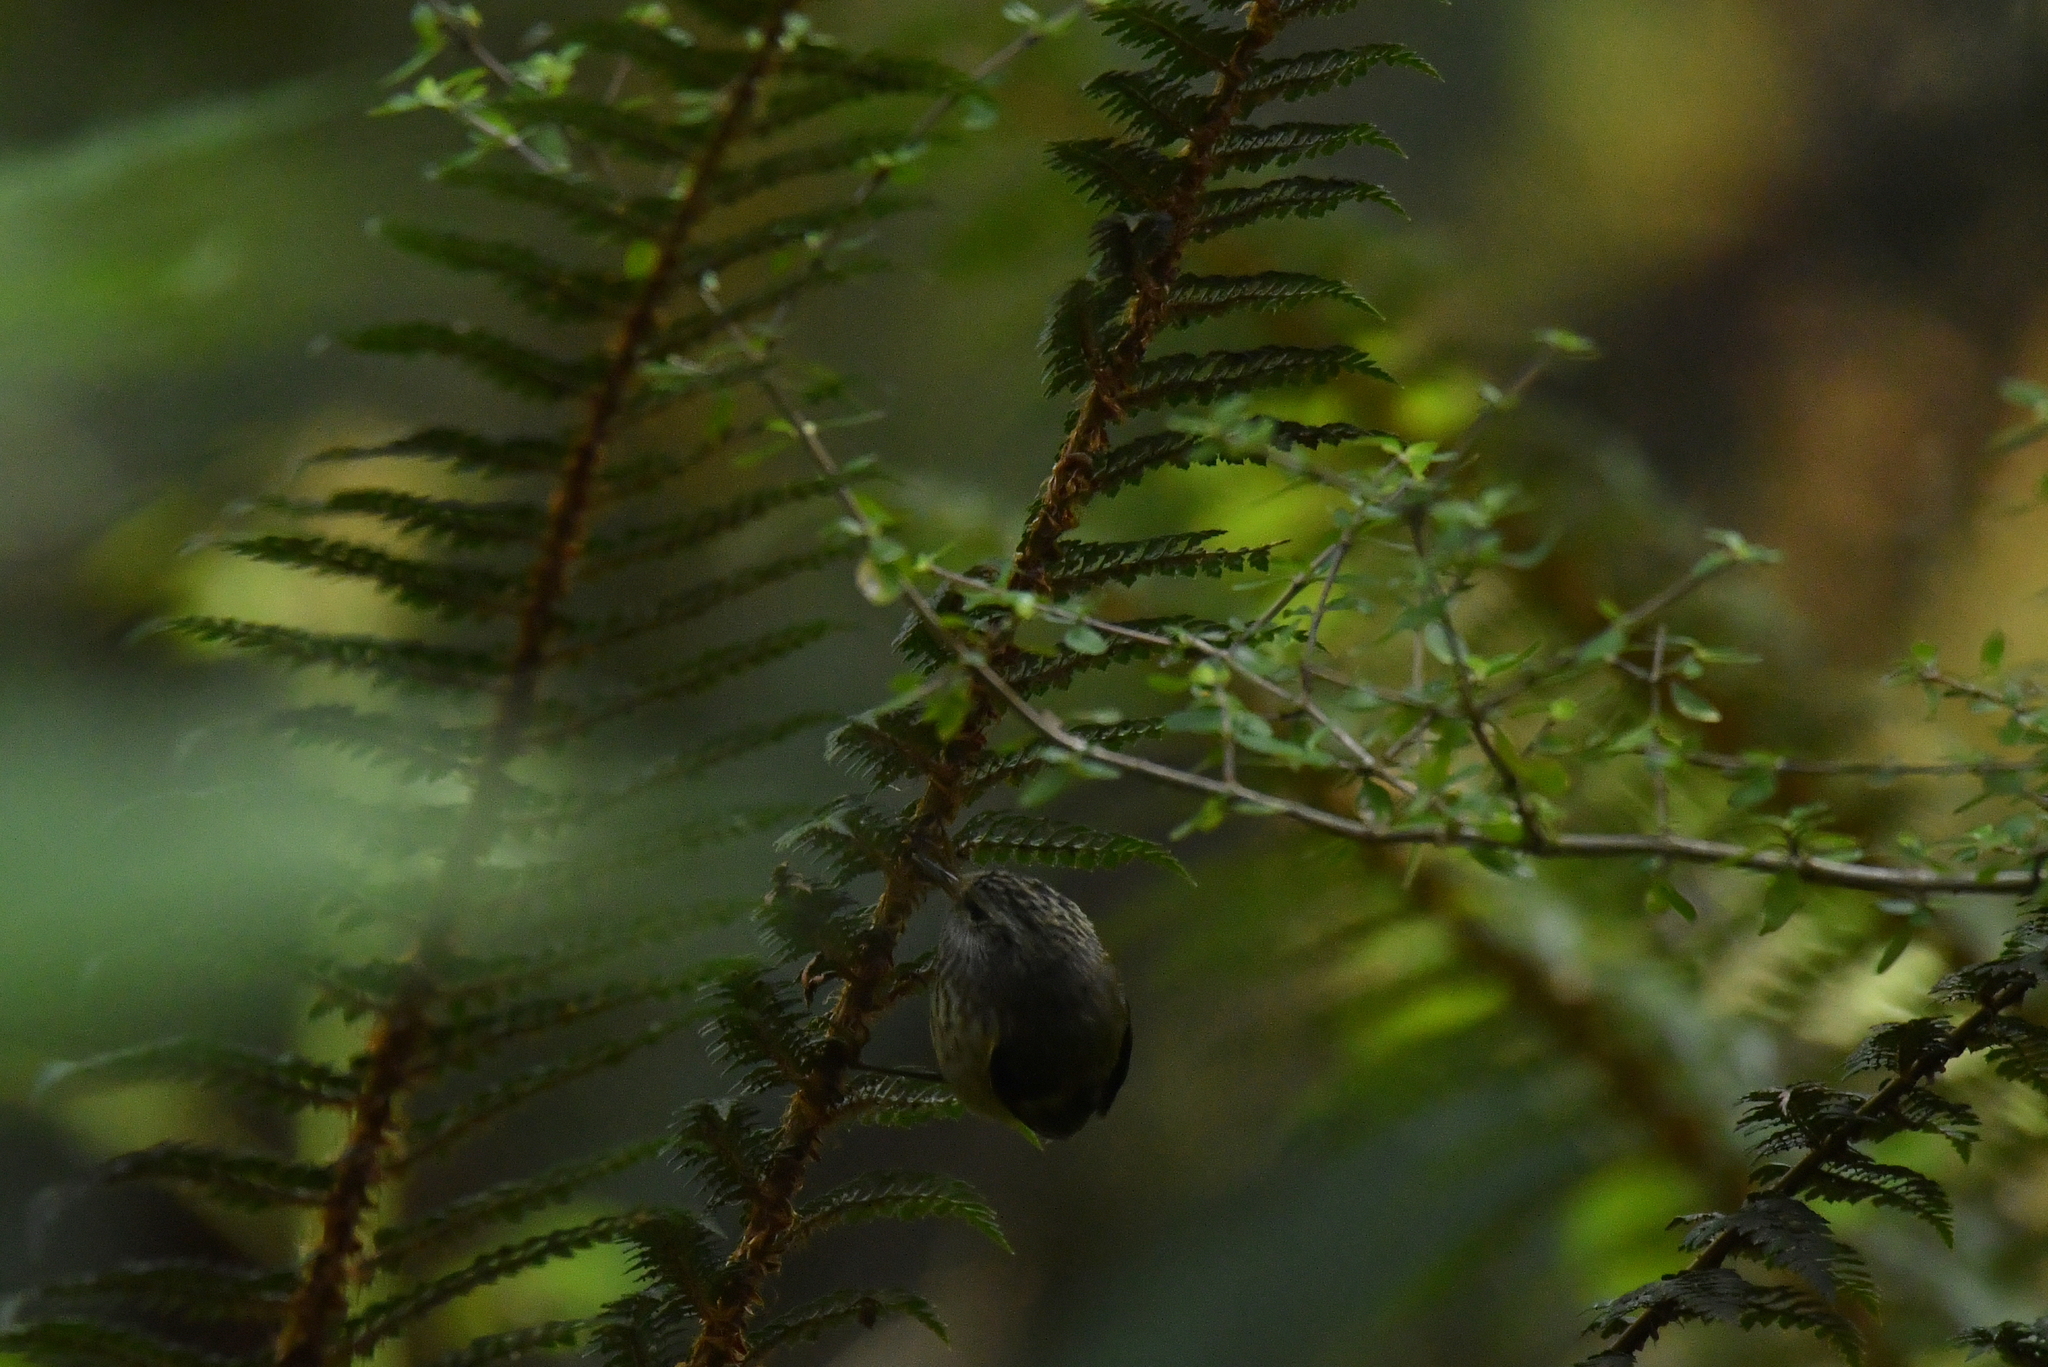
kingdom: Animalia
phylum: Chordata
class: Aves
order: Passeriformes
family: Acanthisittidae
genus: Acanthisitta
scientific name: Acanthisitta chloris
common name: Rifleman
